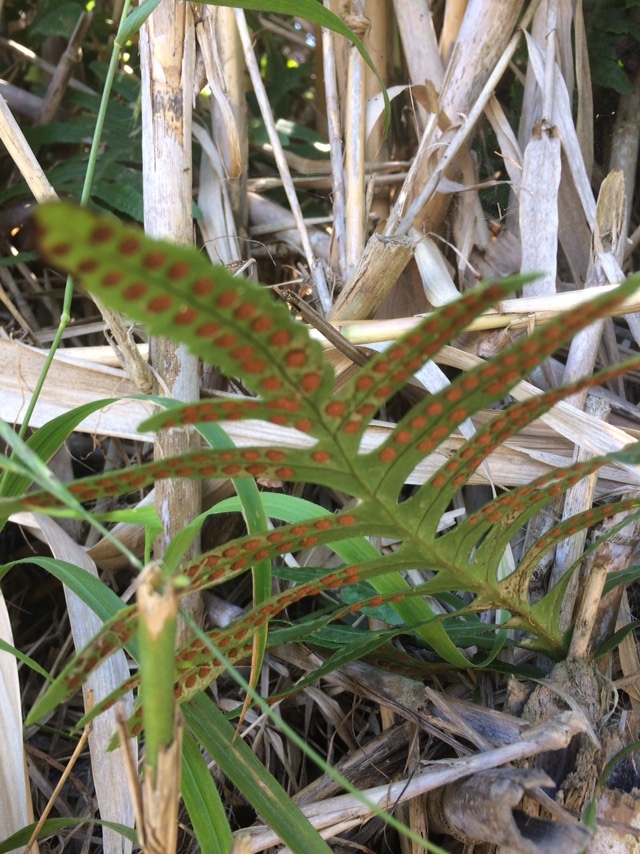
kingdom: Plantae
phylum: Tracheophyta
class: Polypodiopsida
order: Polypodiales
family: Polypodiaceae
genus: Polypodium
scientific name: Polypodium macaronesicum
